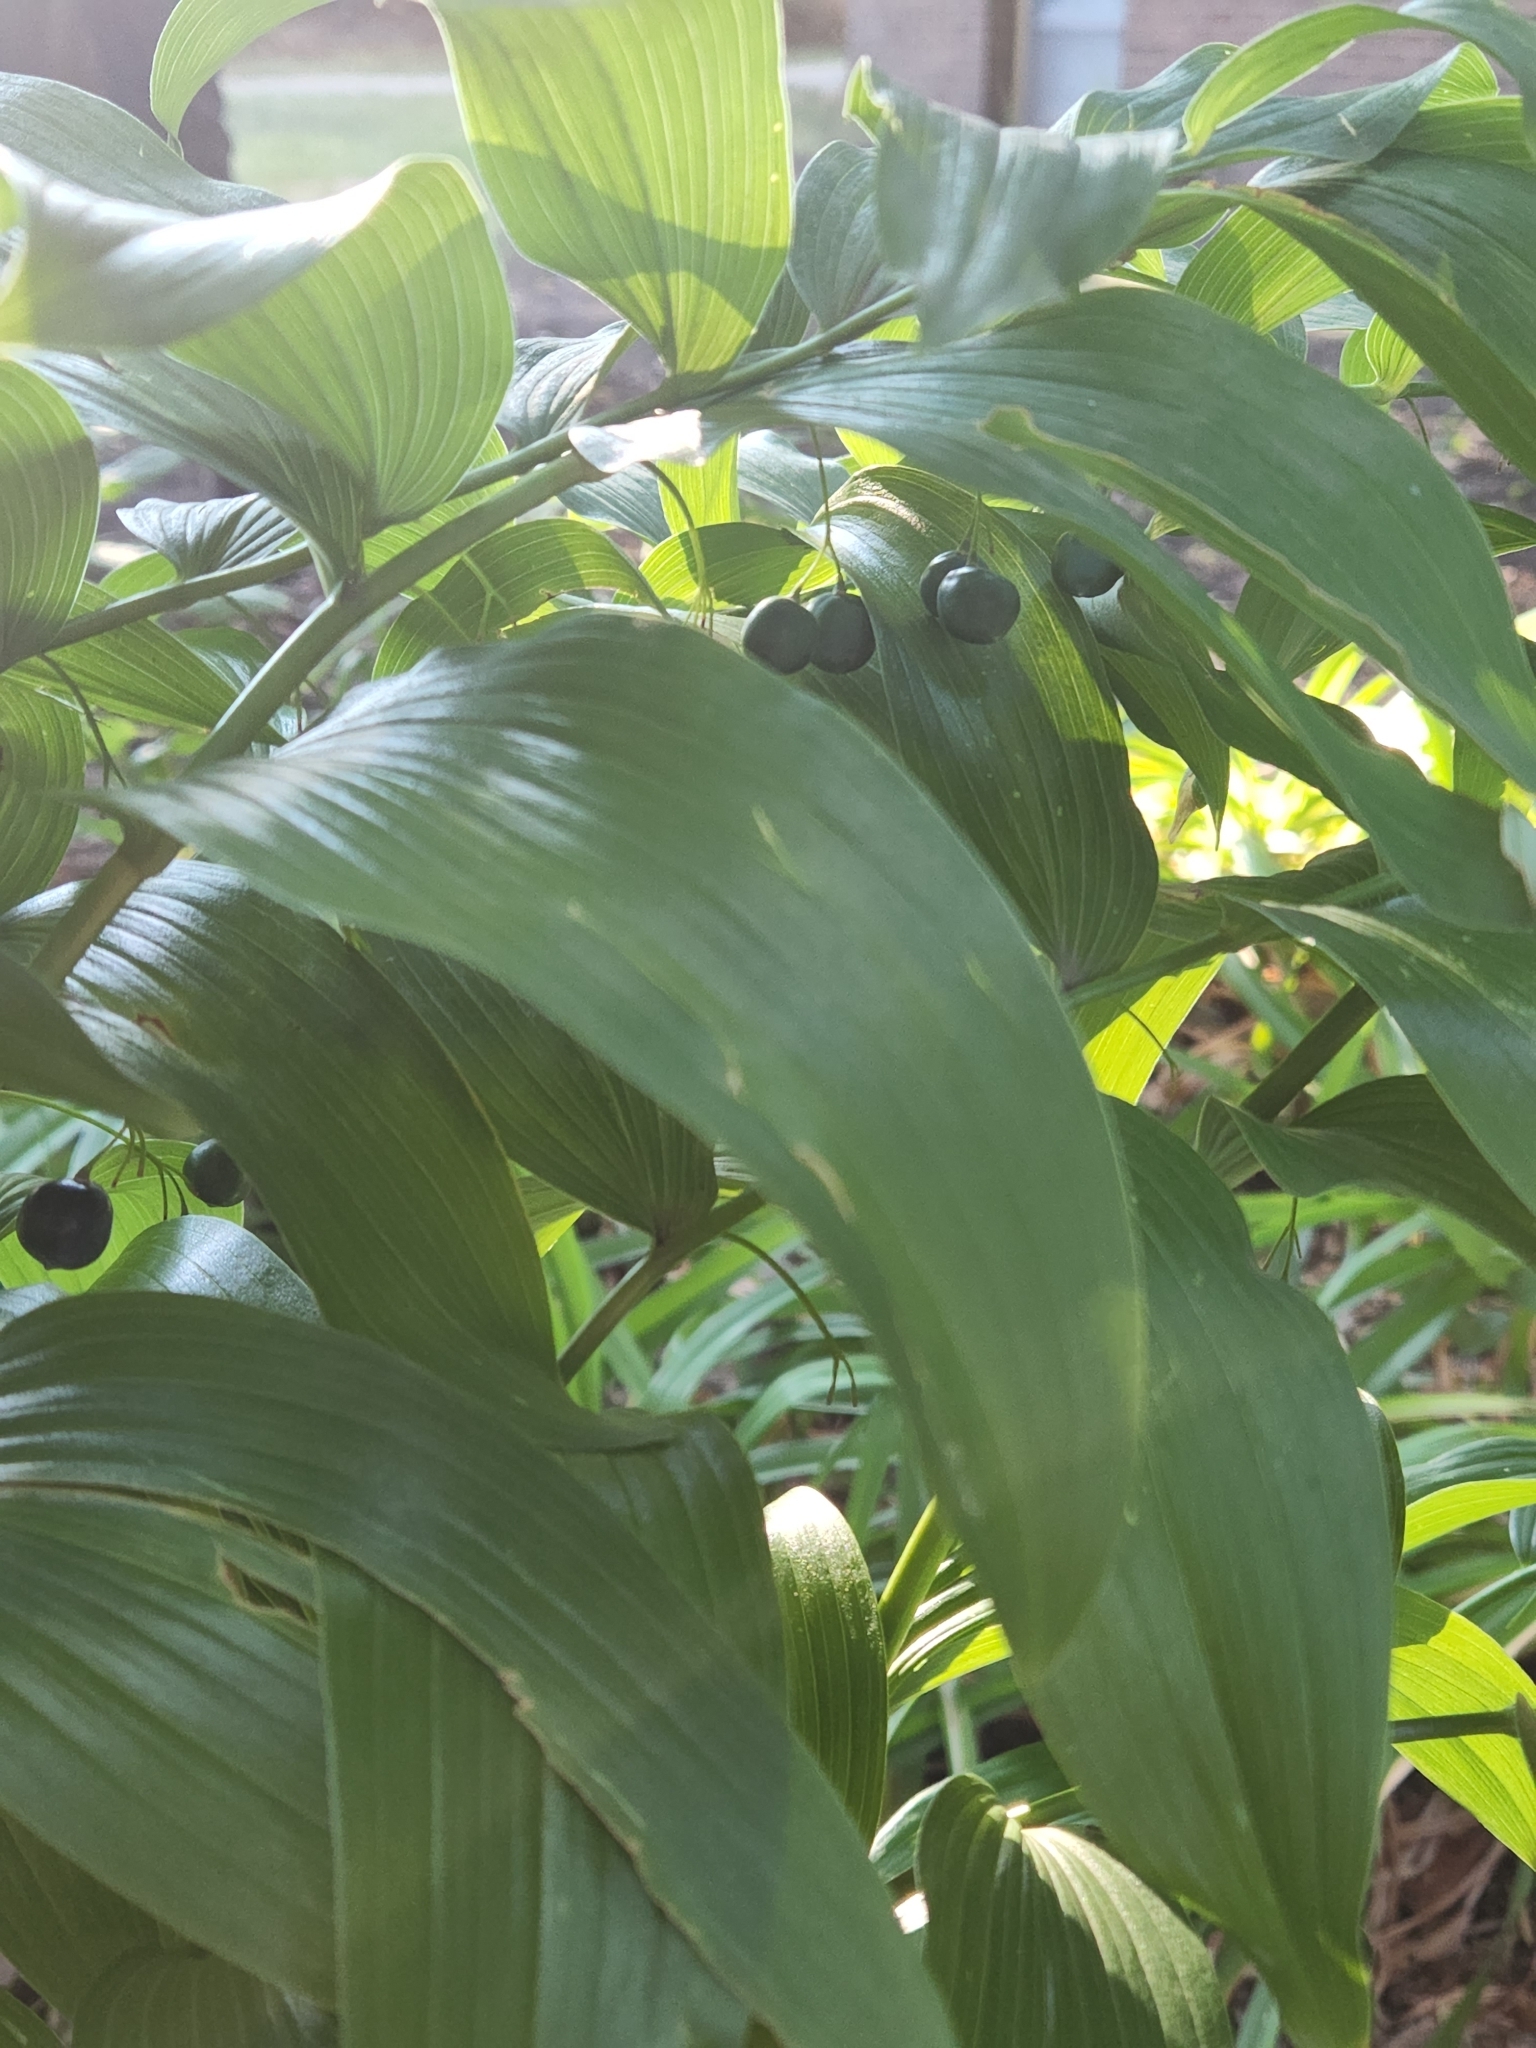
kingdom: Plantae
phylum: Tracheophyta
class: Liliopsida
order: Asparagales
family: Asparagaceae
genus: Polygonatum
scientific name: Polygonatum biflorum
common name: American solomon's-seal
